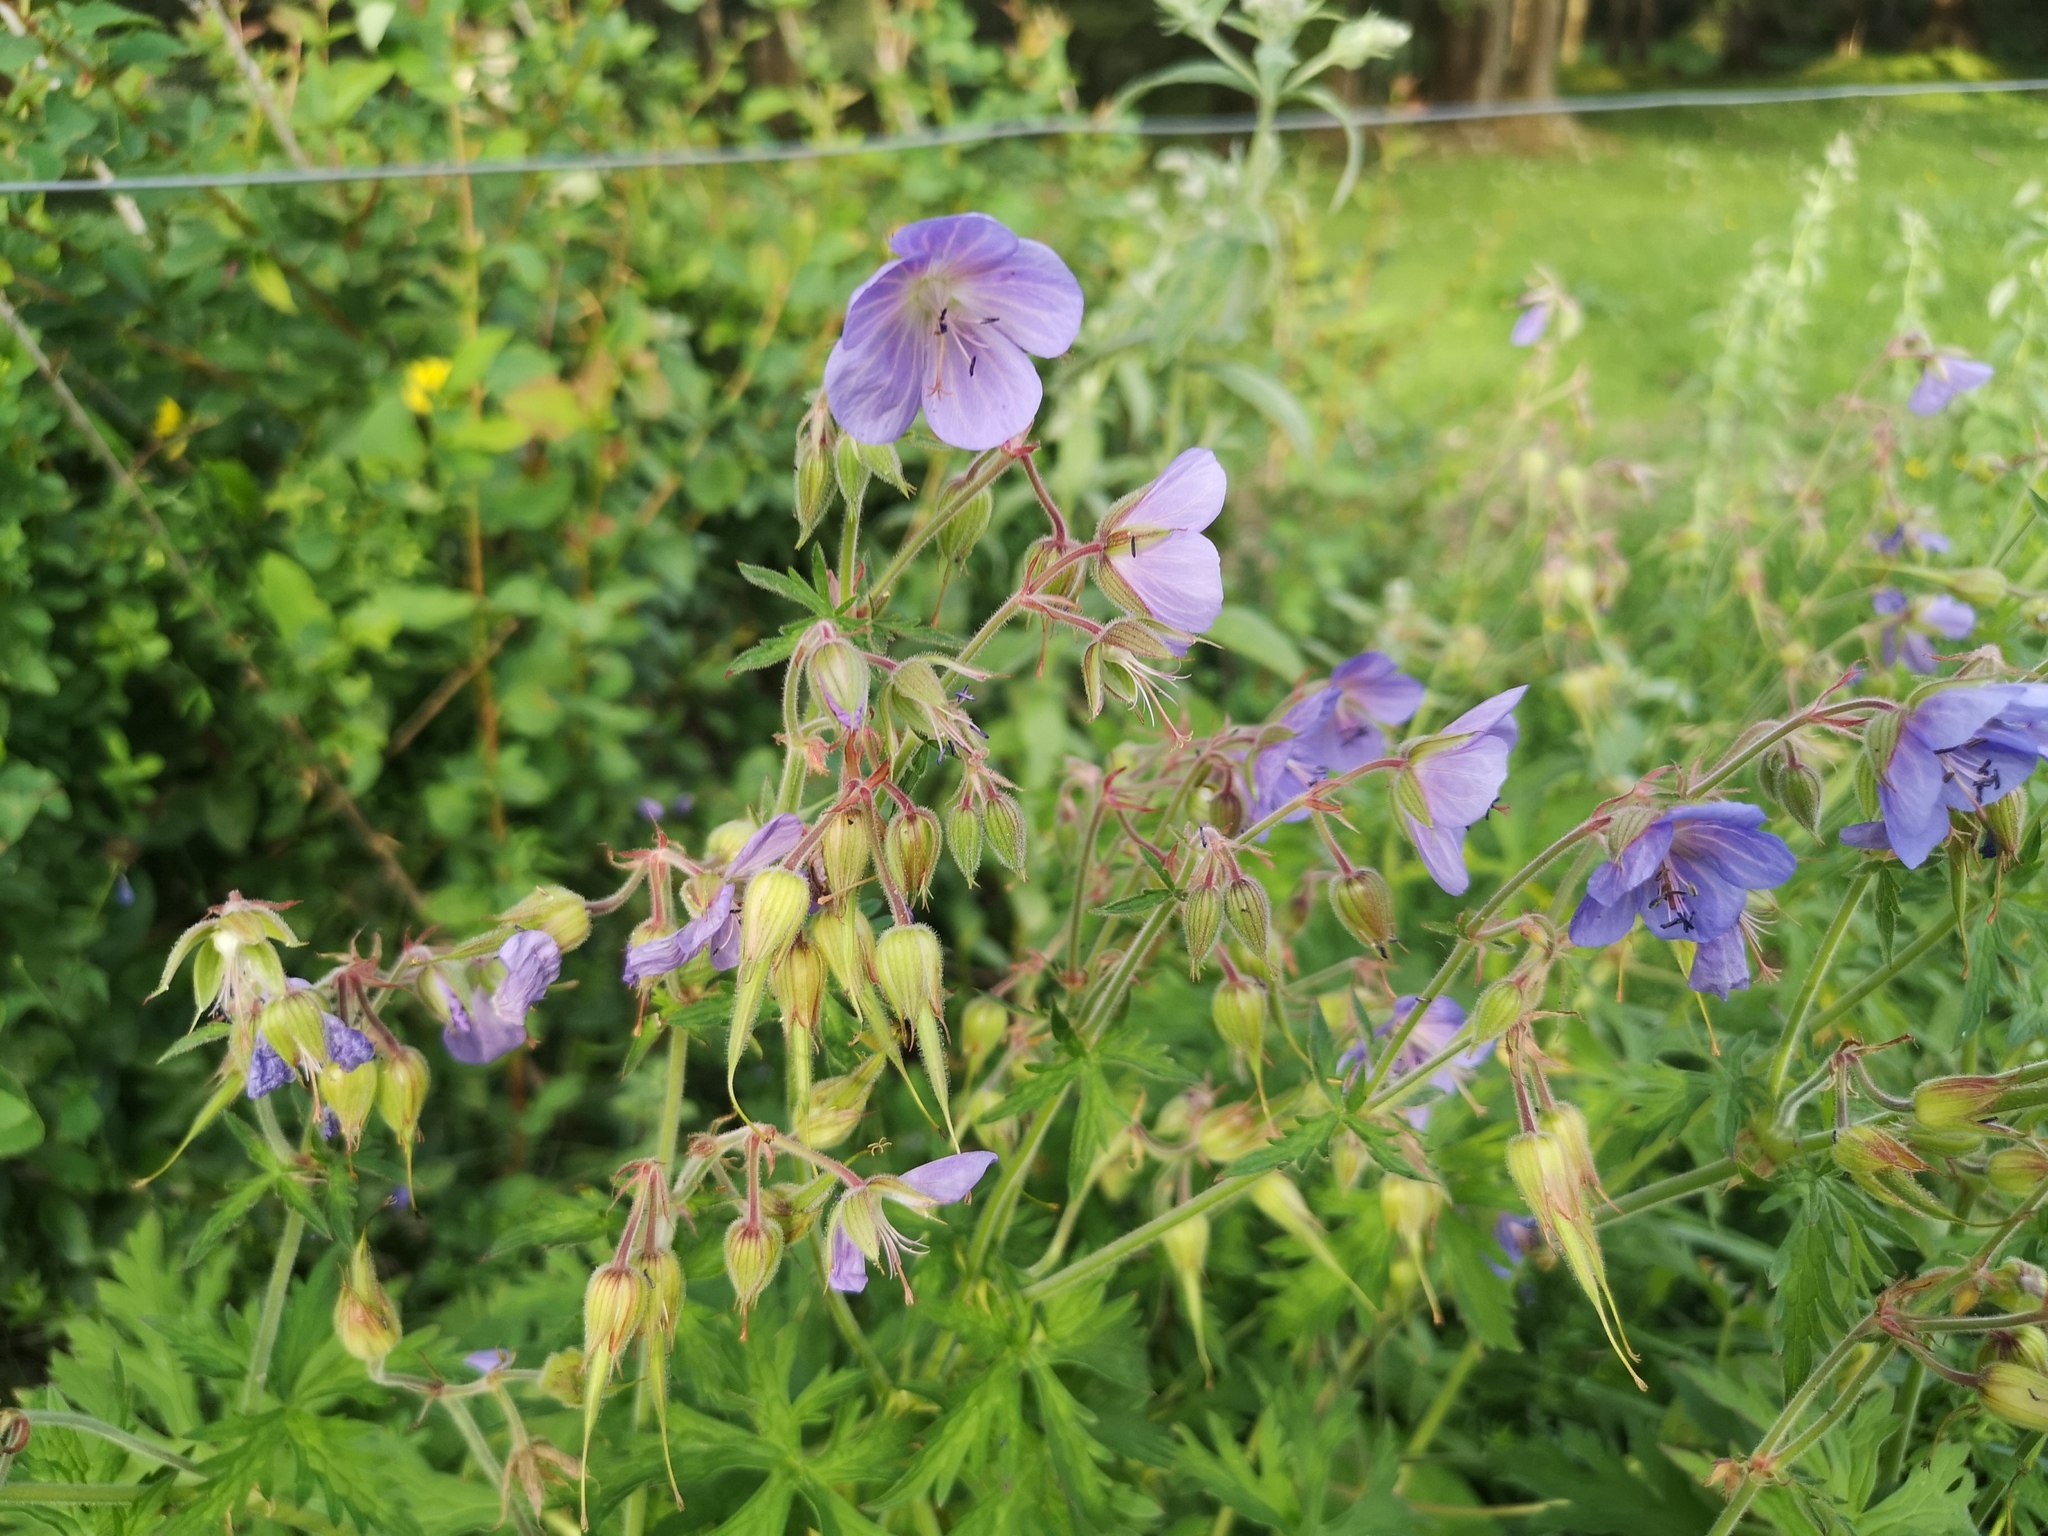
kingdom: Plantae
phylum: Tracheophyta
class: Magnoliopsida
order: Geraniales
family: Geraniaceae
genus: Geranium
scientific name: Geranium pratense
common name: Meadow crane's-bill
